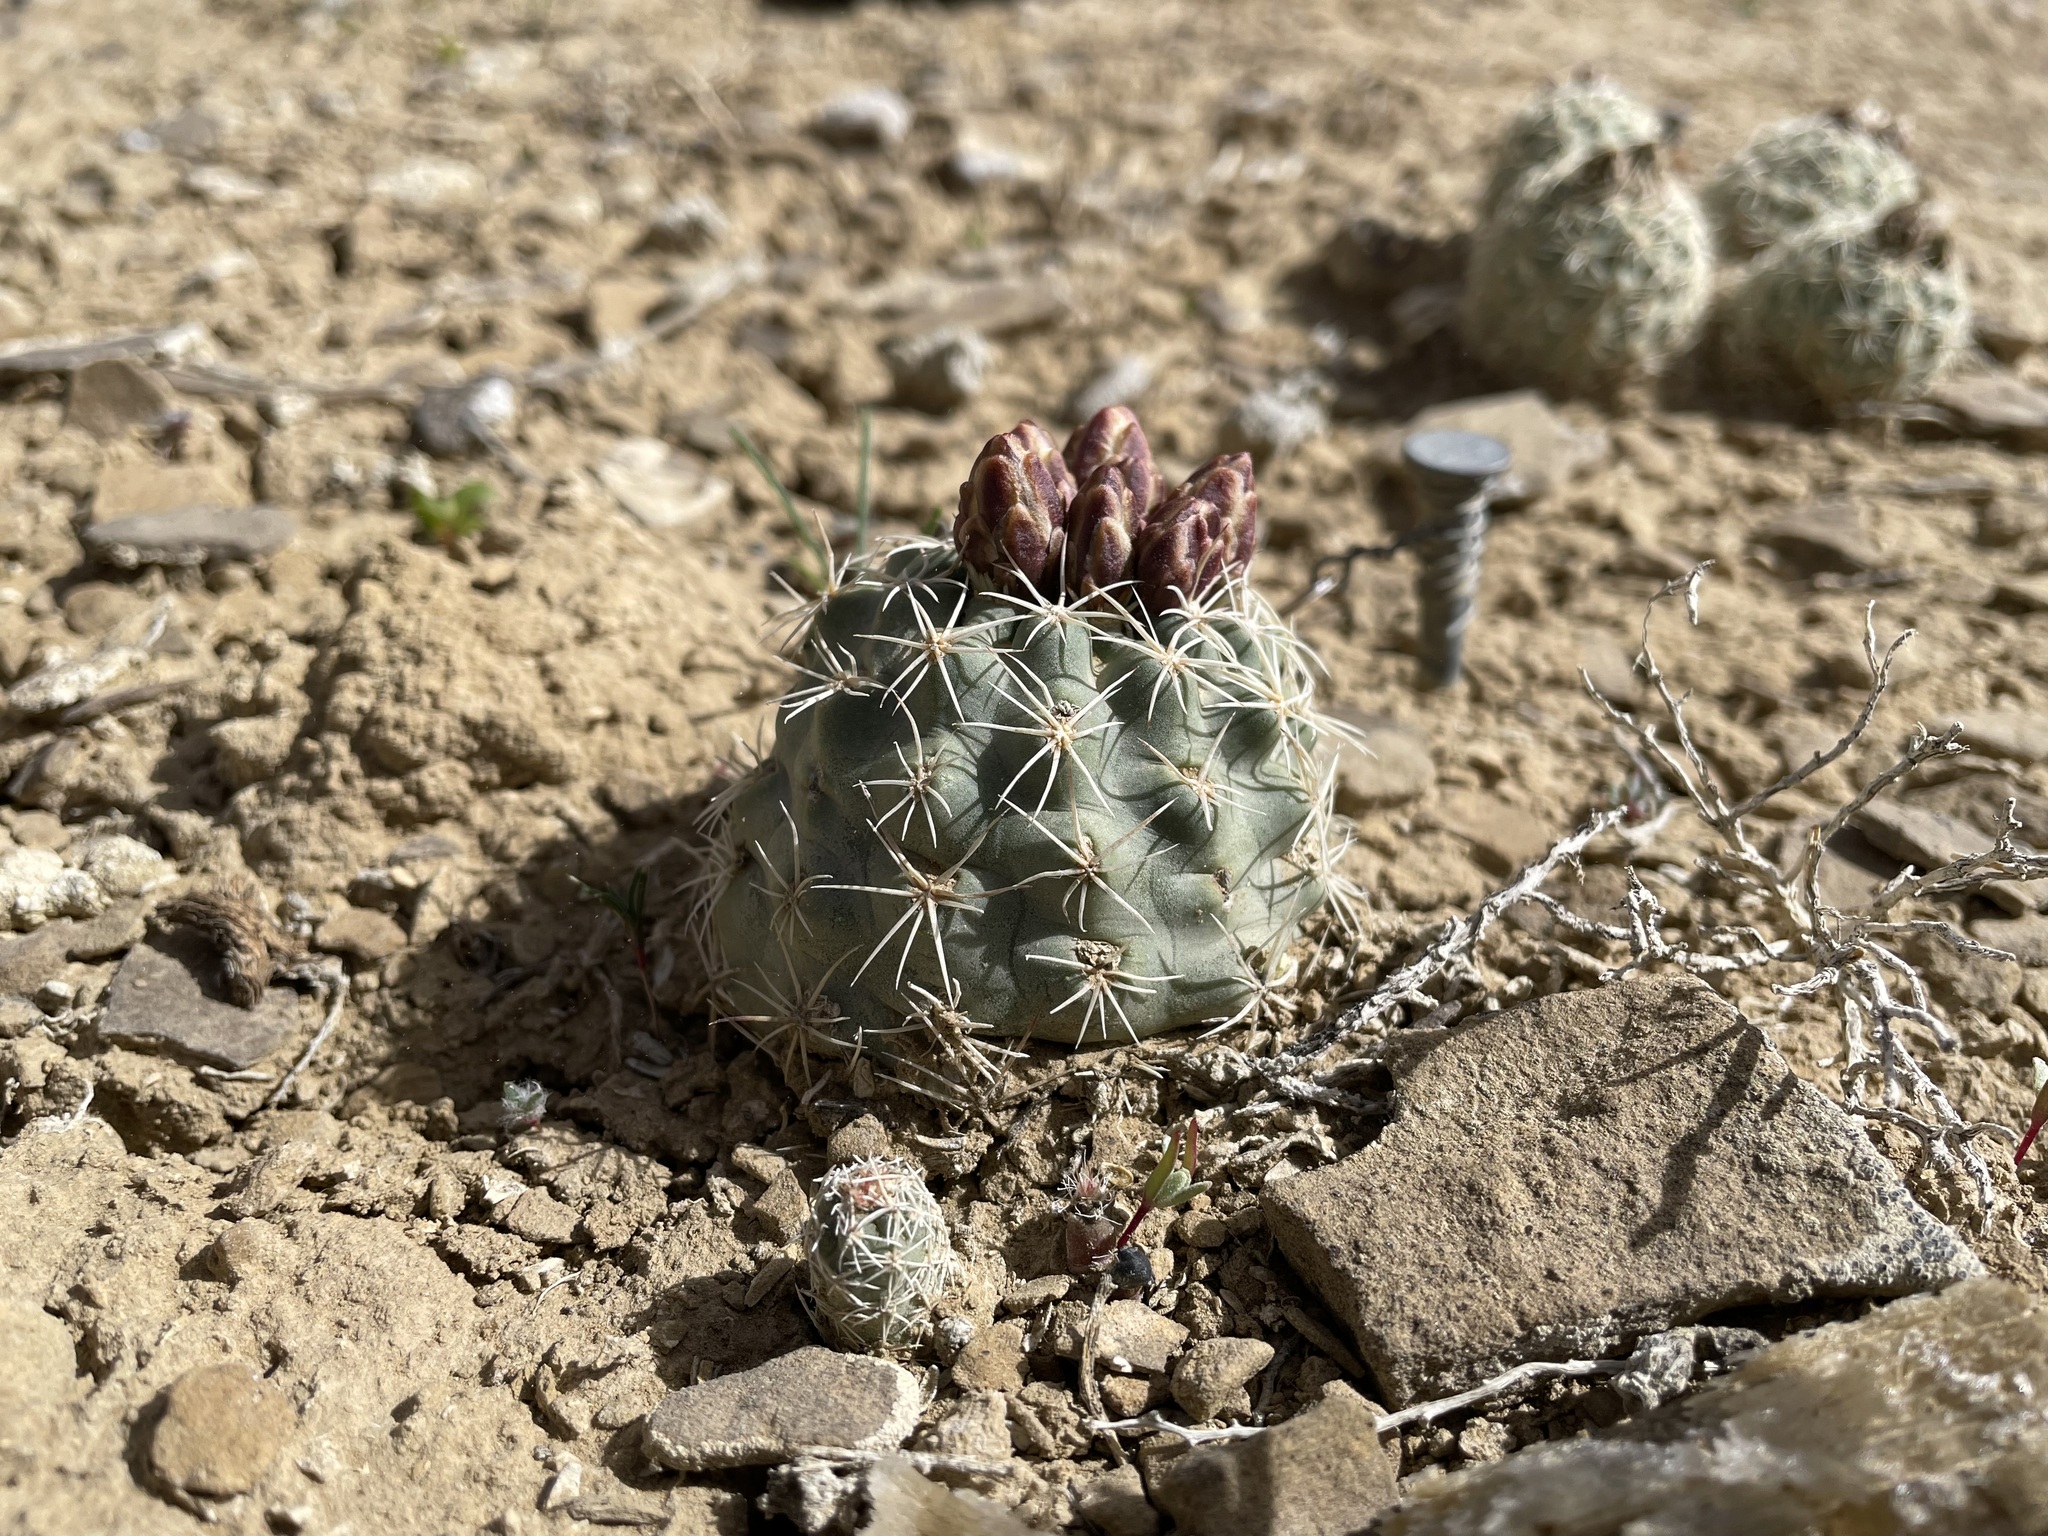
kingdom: Plantae
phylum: Tracheophyta
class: Magnoliopsida
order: Caryophyllales
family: Cactaceae
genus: Sclerocactus
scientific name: Sclerocactus mesae-verdae
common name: Mesa verde cactus
